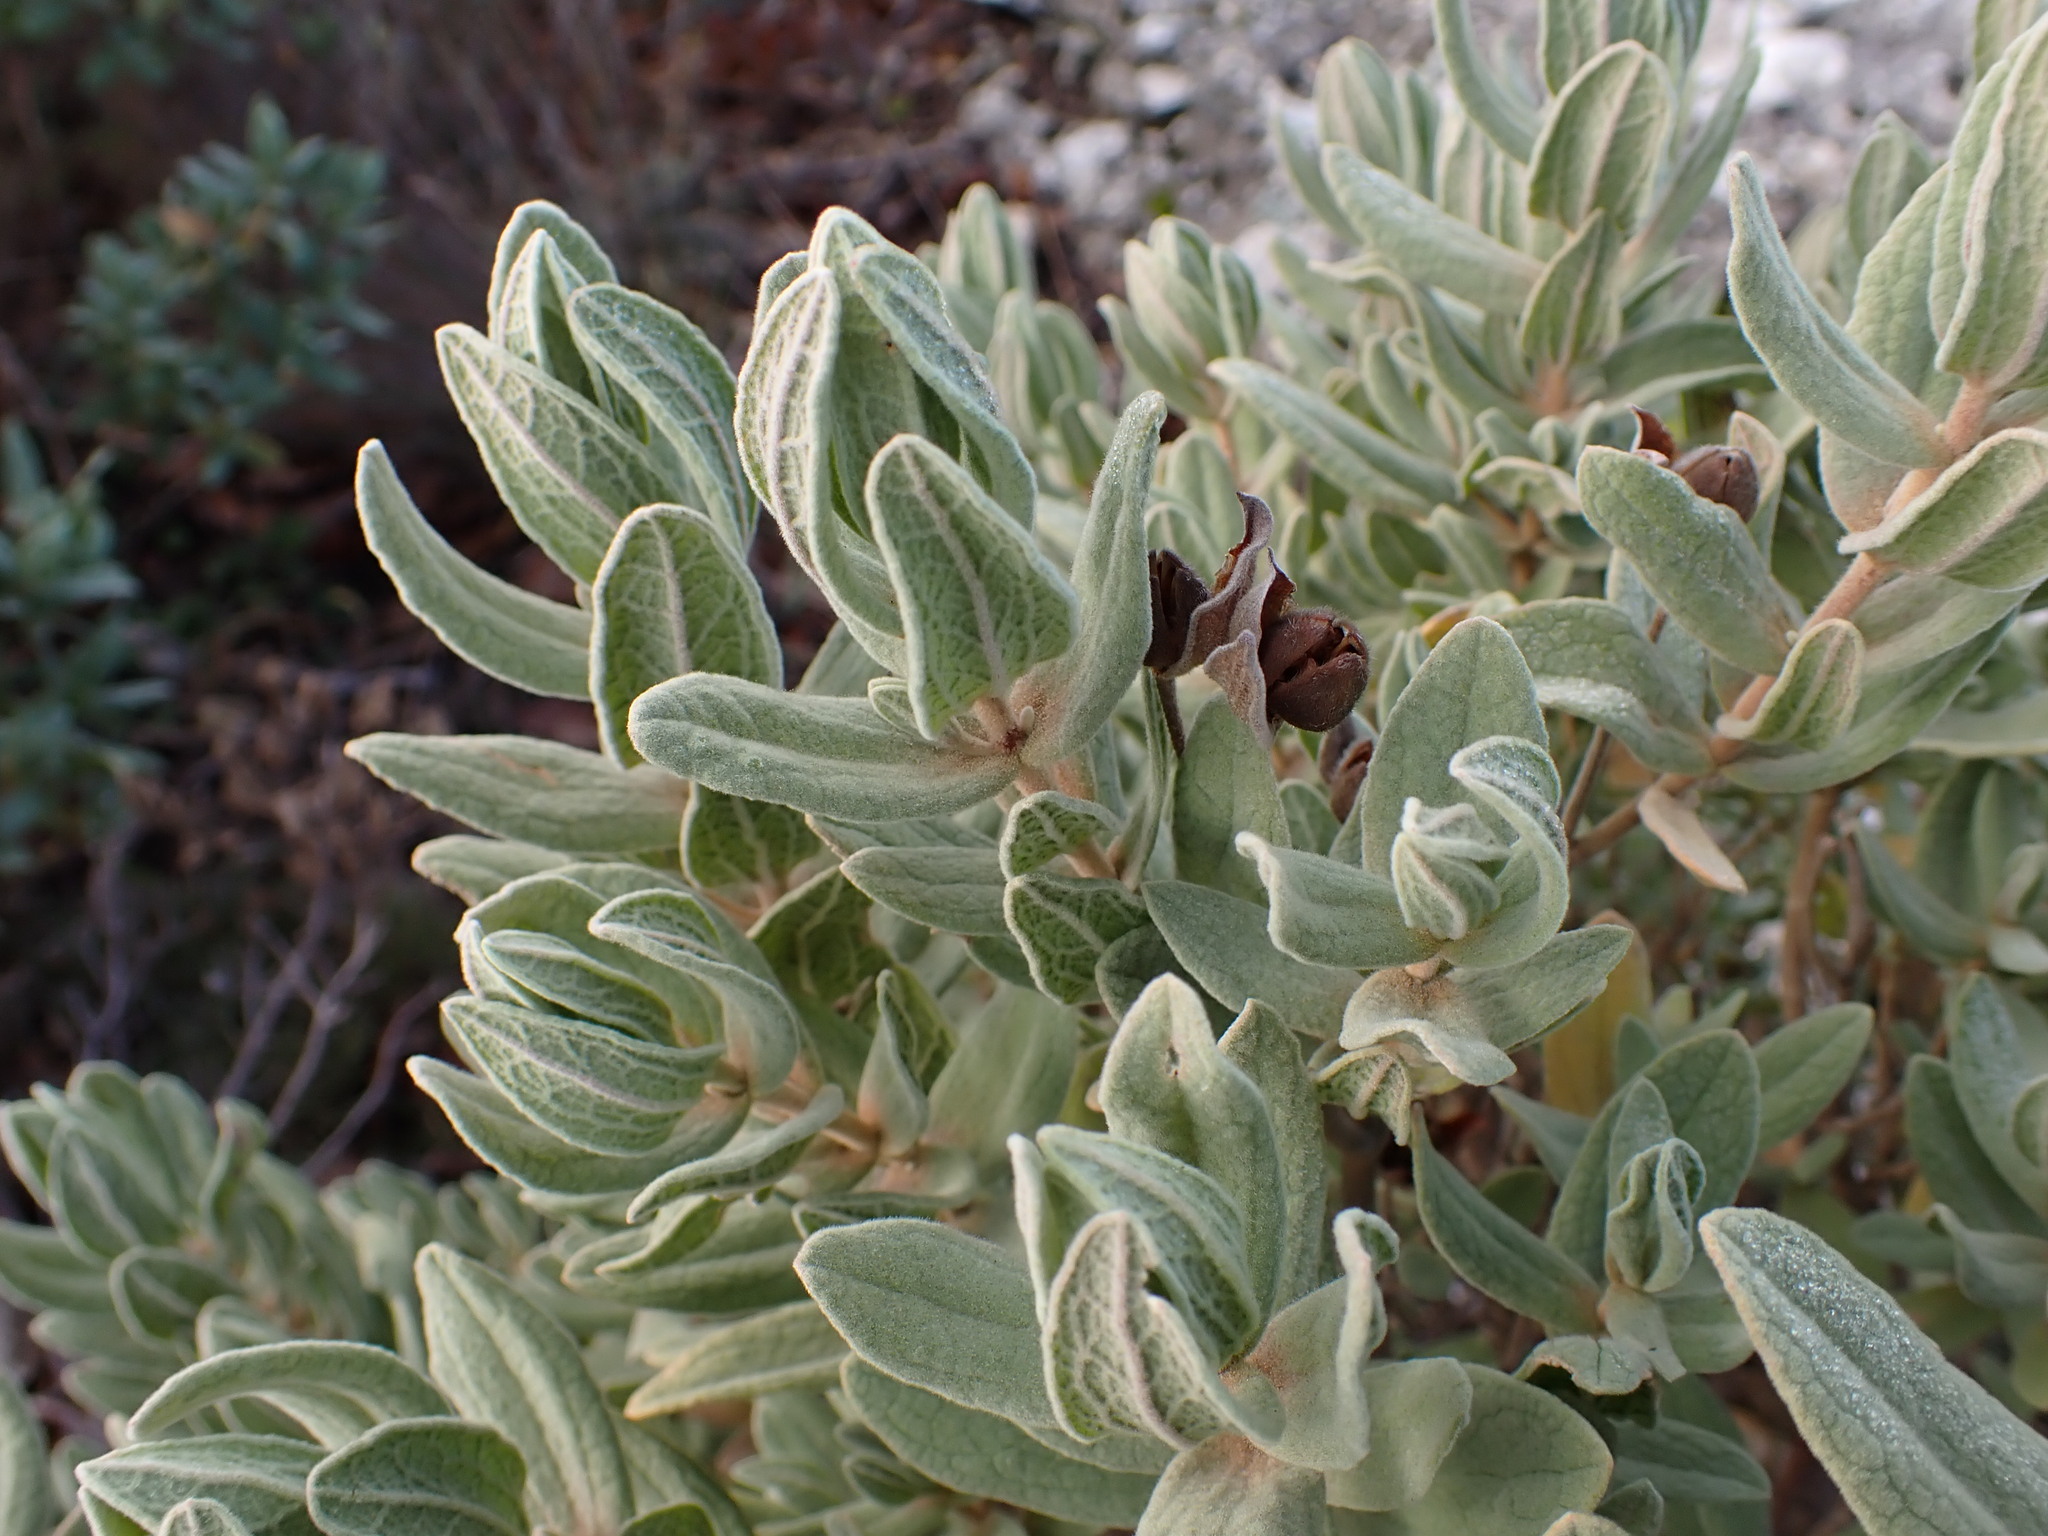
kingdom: Plantae
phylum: Tracheophyta
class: Magnoliopsida
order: Malvales
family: Cistaceae
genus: Cistus
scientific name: Cistus albidus
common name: White-leaf rock-rose
